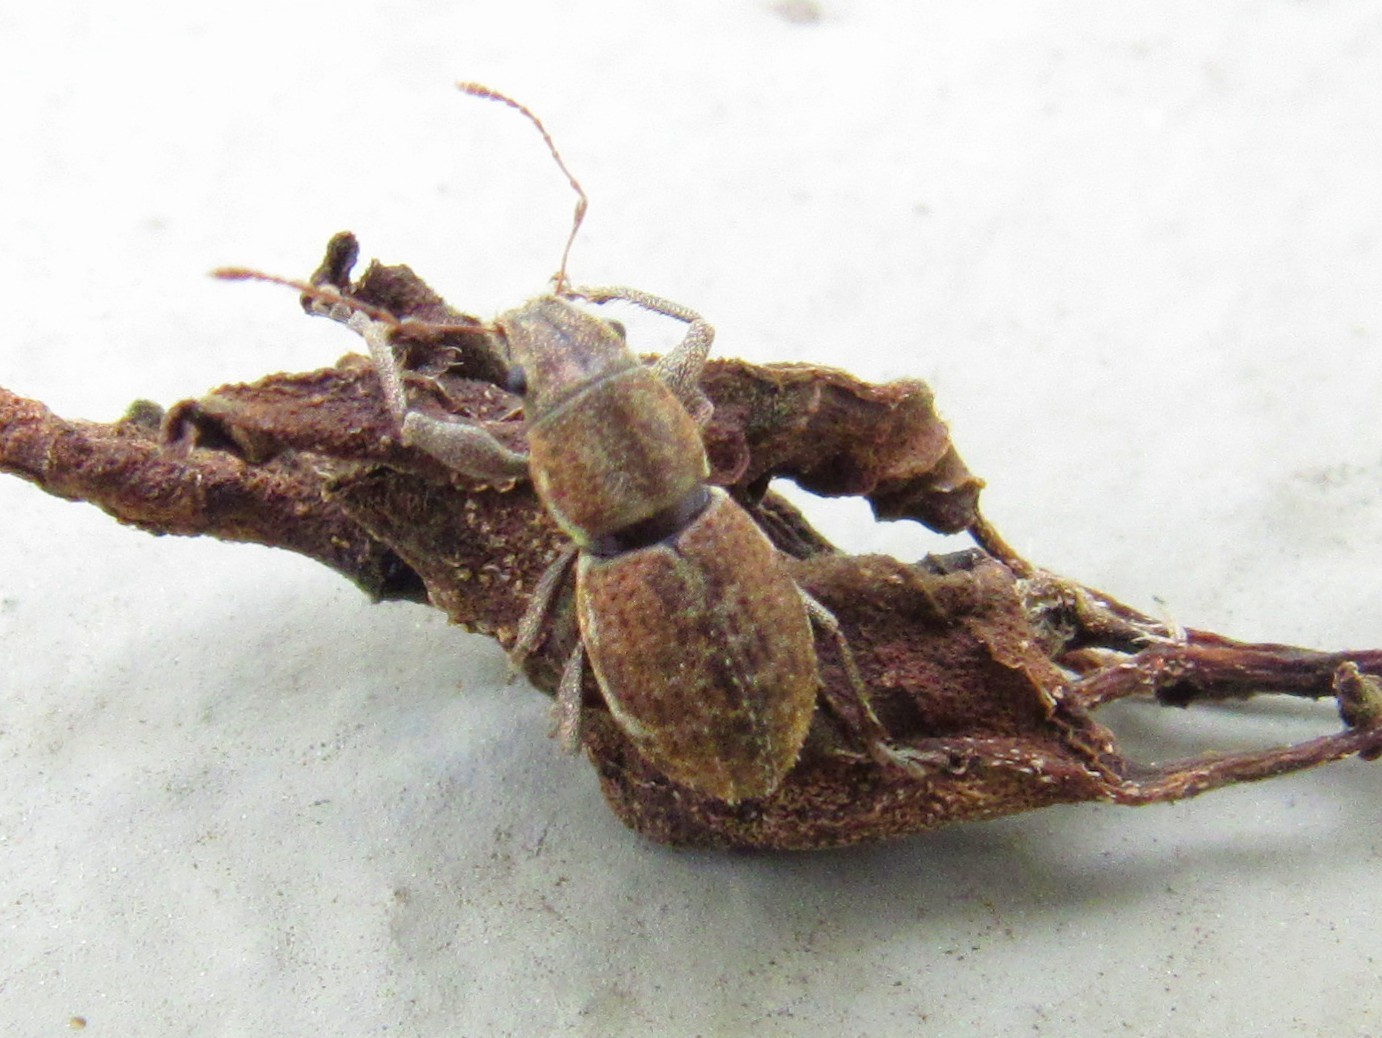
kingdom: Animalia
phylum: Arthropoda
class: Insecta
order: Coleoptera
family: Curculionidae
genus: Naupactus
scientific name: Naupactus cervinus
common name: Fuller rose beetle
